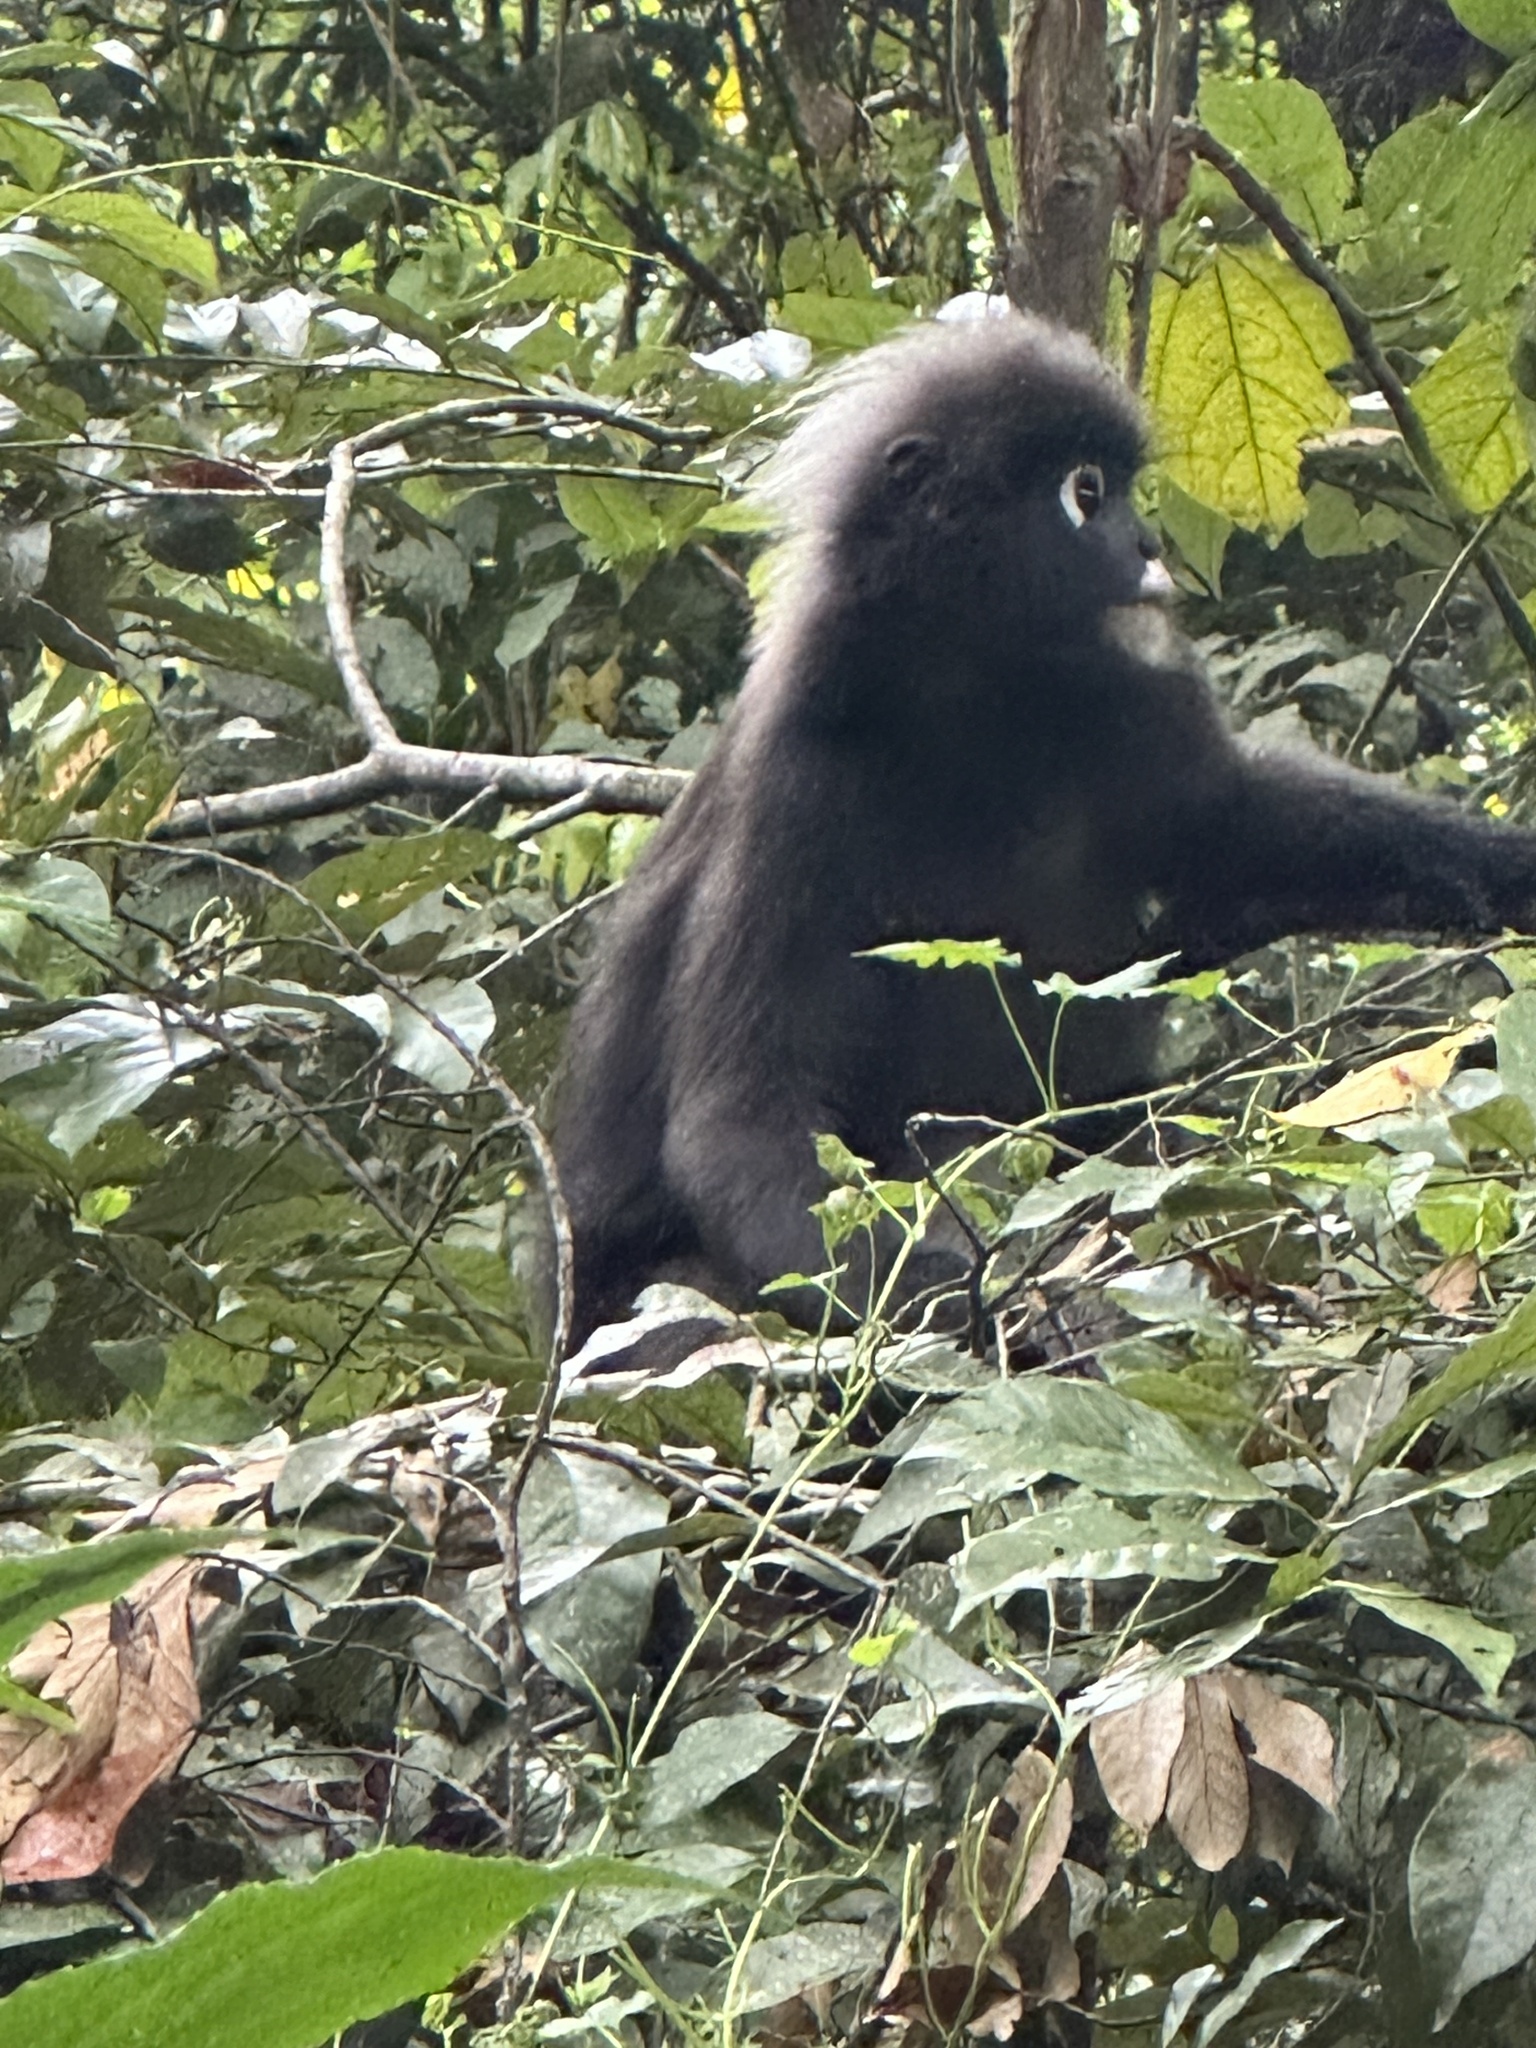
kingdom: Animalia
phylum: Chordata
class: Mammalia
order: Primates
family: Cercopithecidae
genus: Trachypithecus
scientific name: Trachypithecus obscurus
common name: Dusky leaf-monkey
